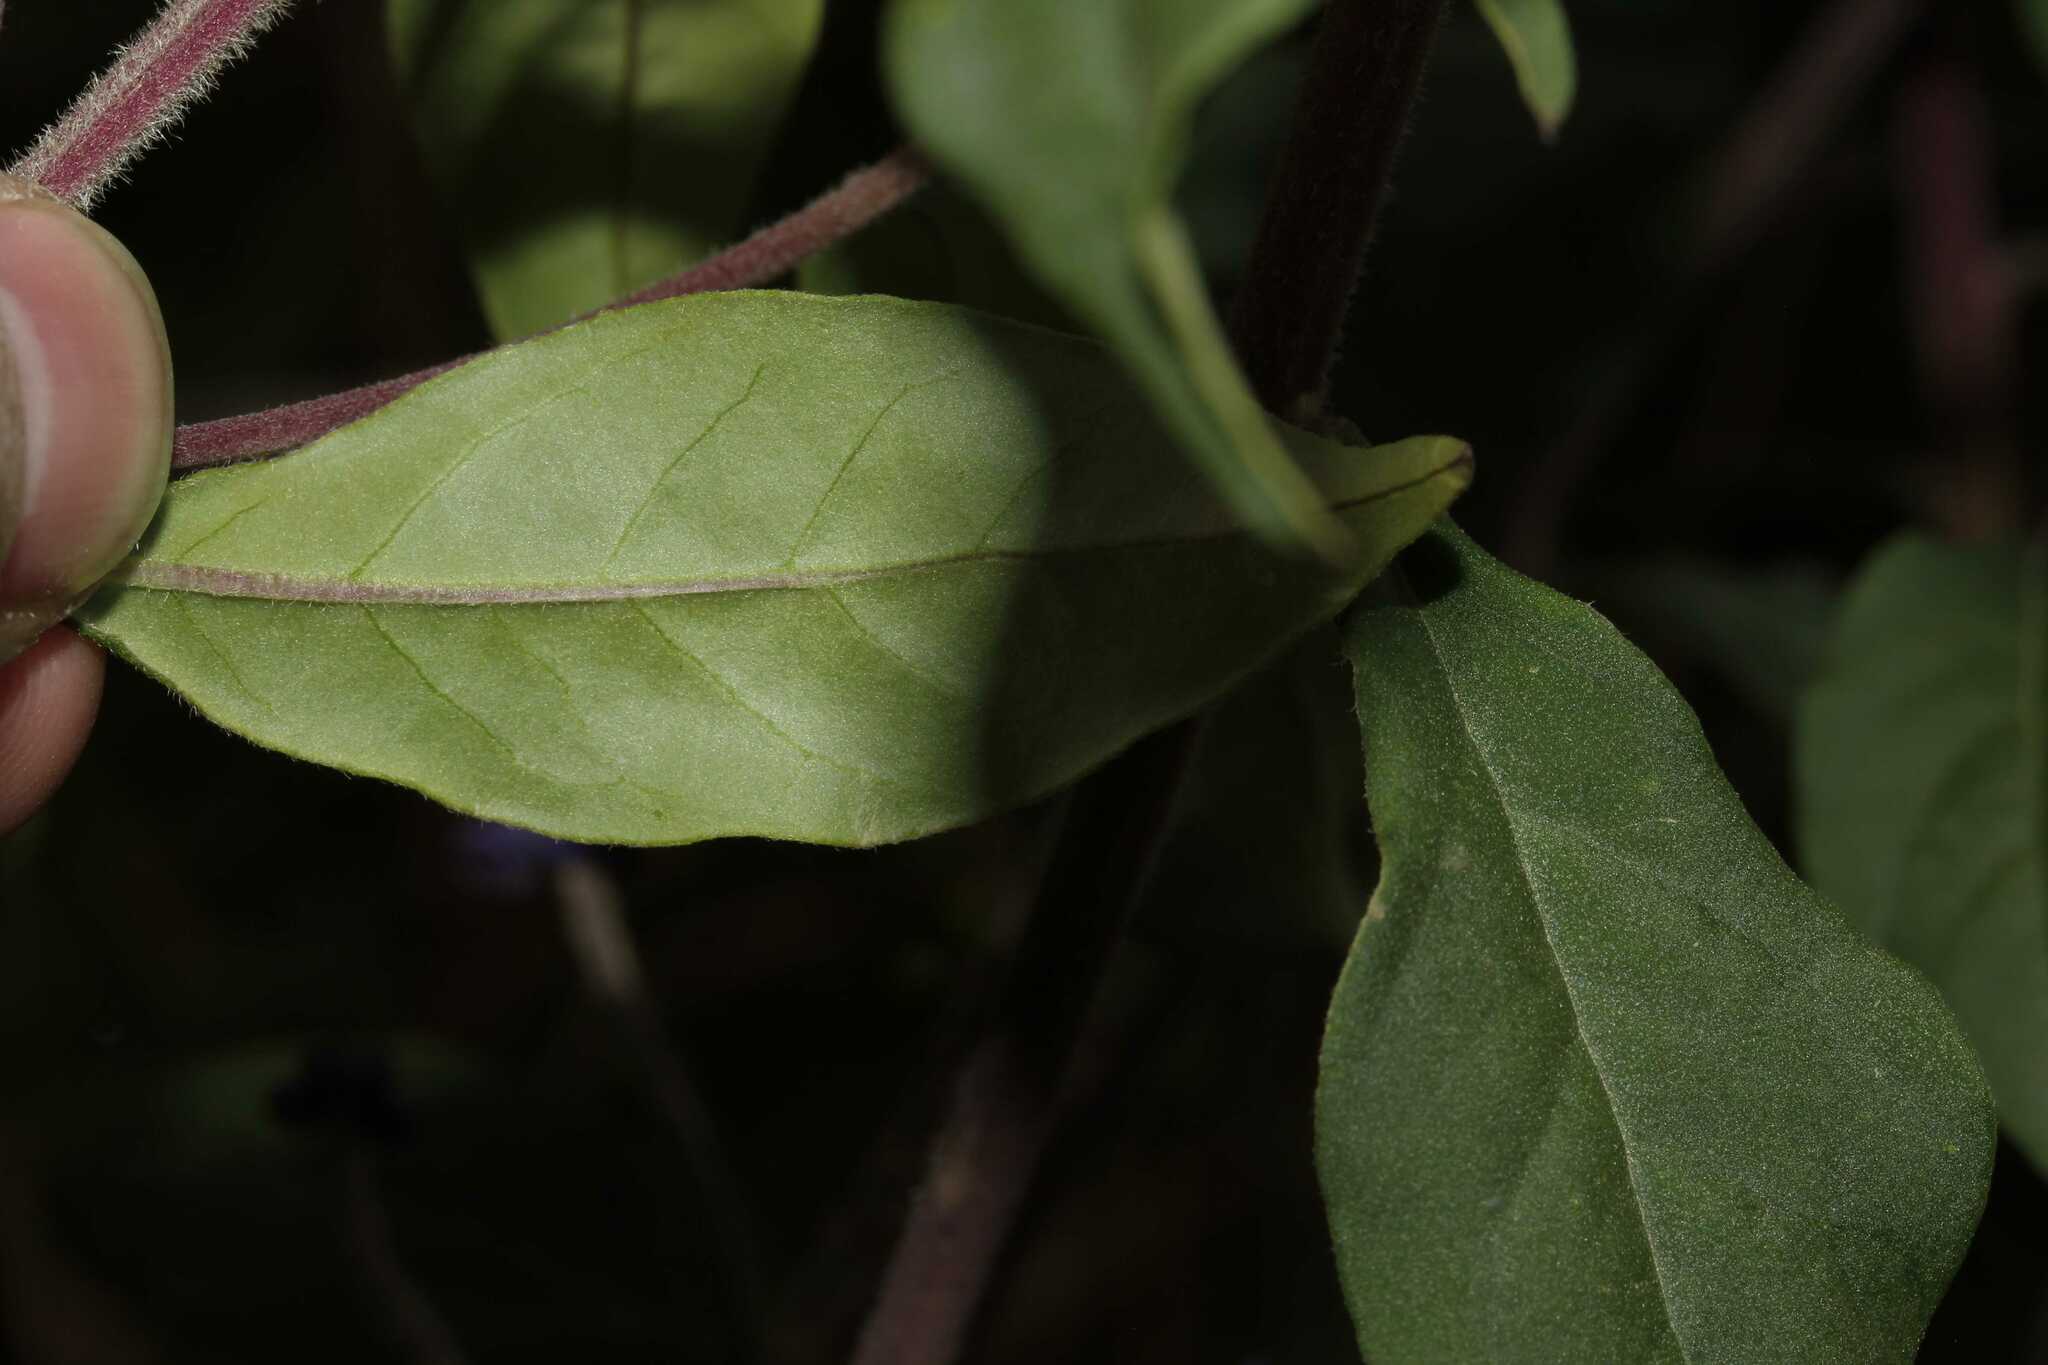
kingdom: Plantae
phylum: Tracheophyta
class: Magnoliopsida
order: Fabales
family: Polygalaceae
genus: Monnina
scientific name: Monnina ciliolata
